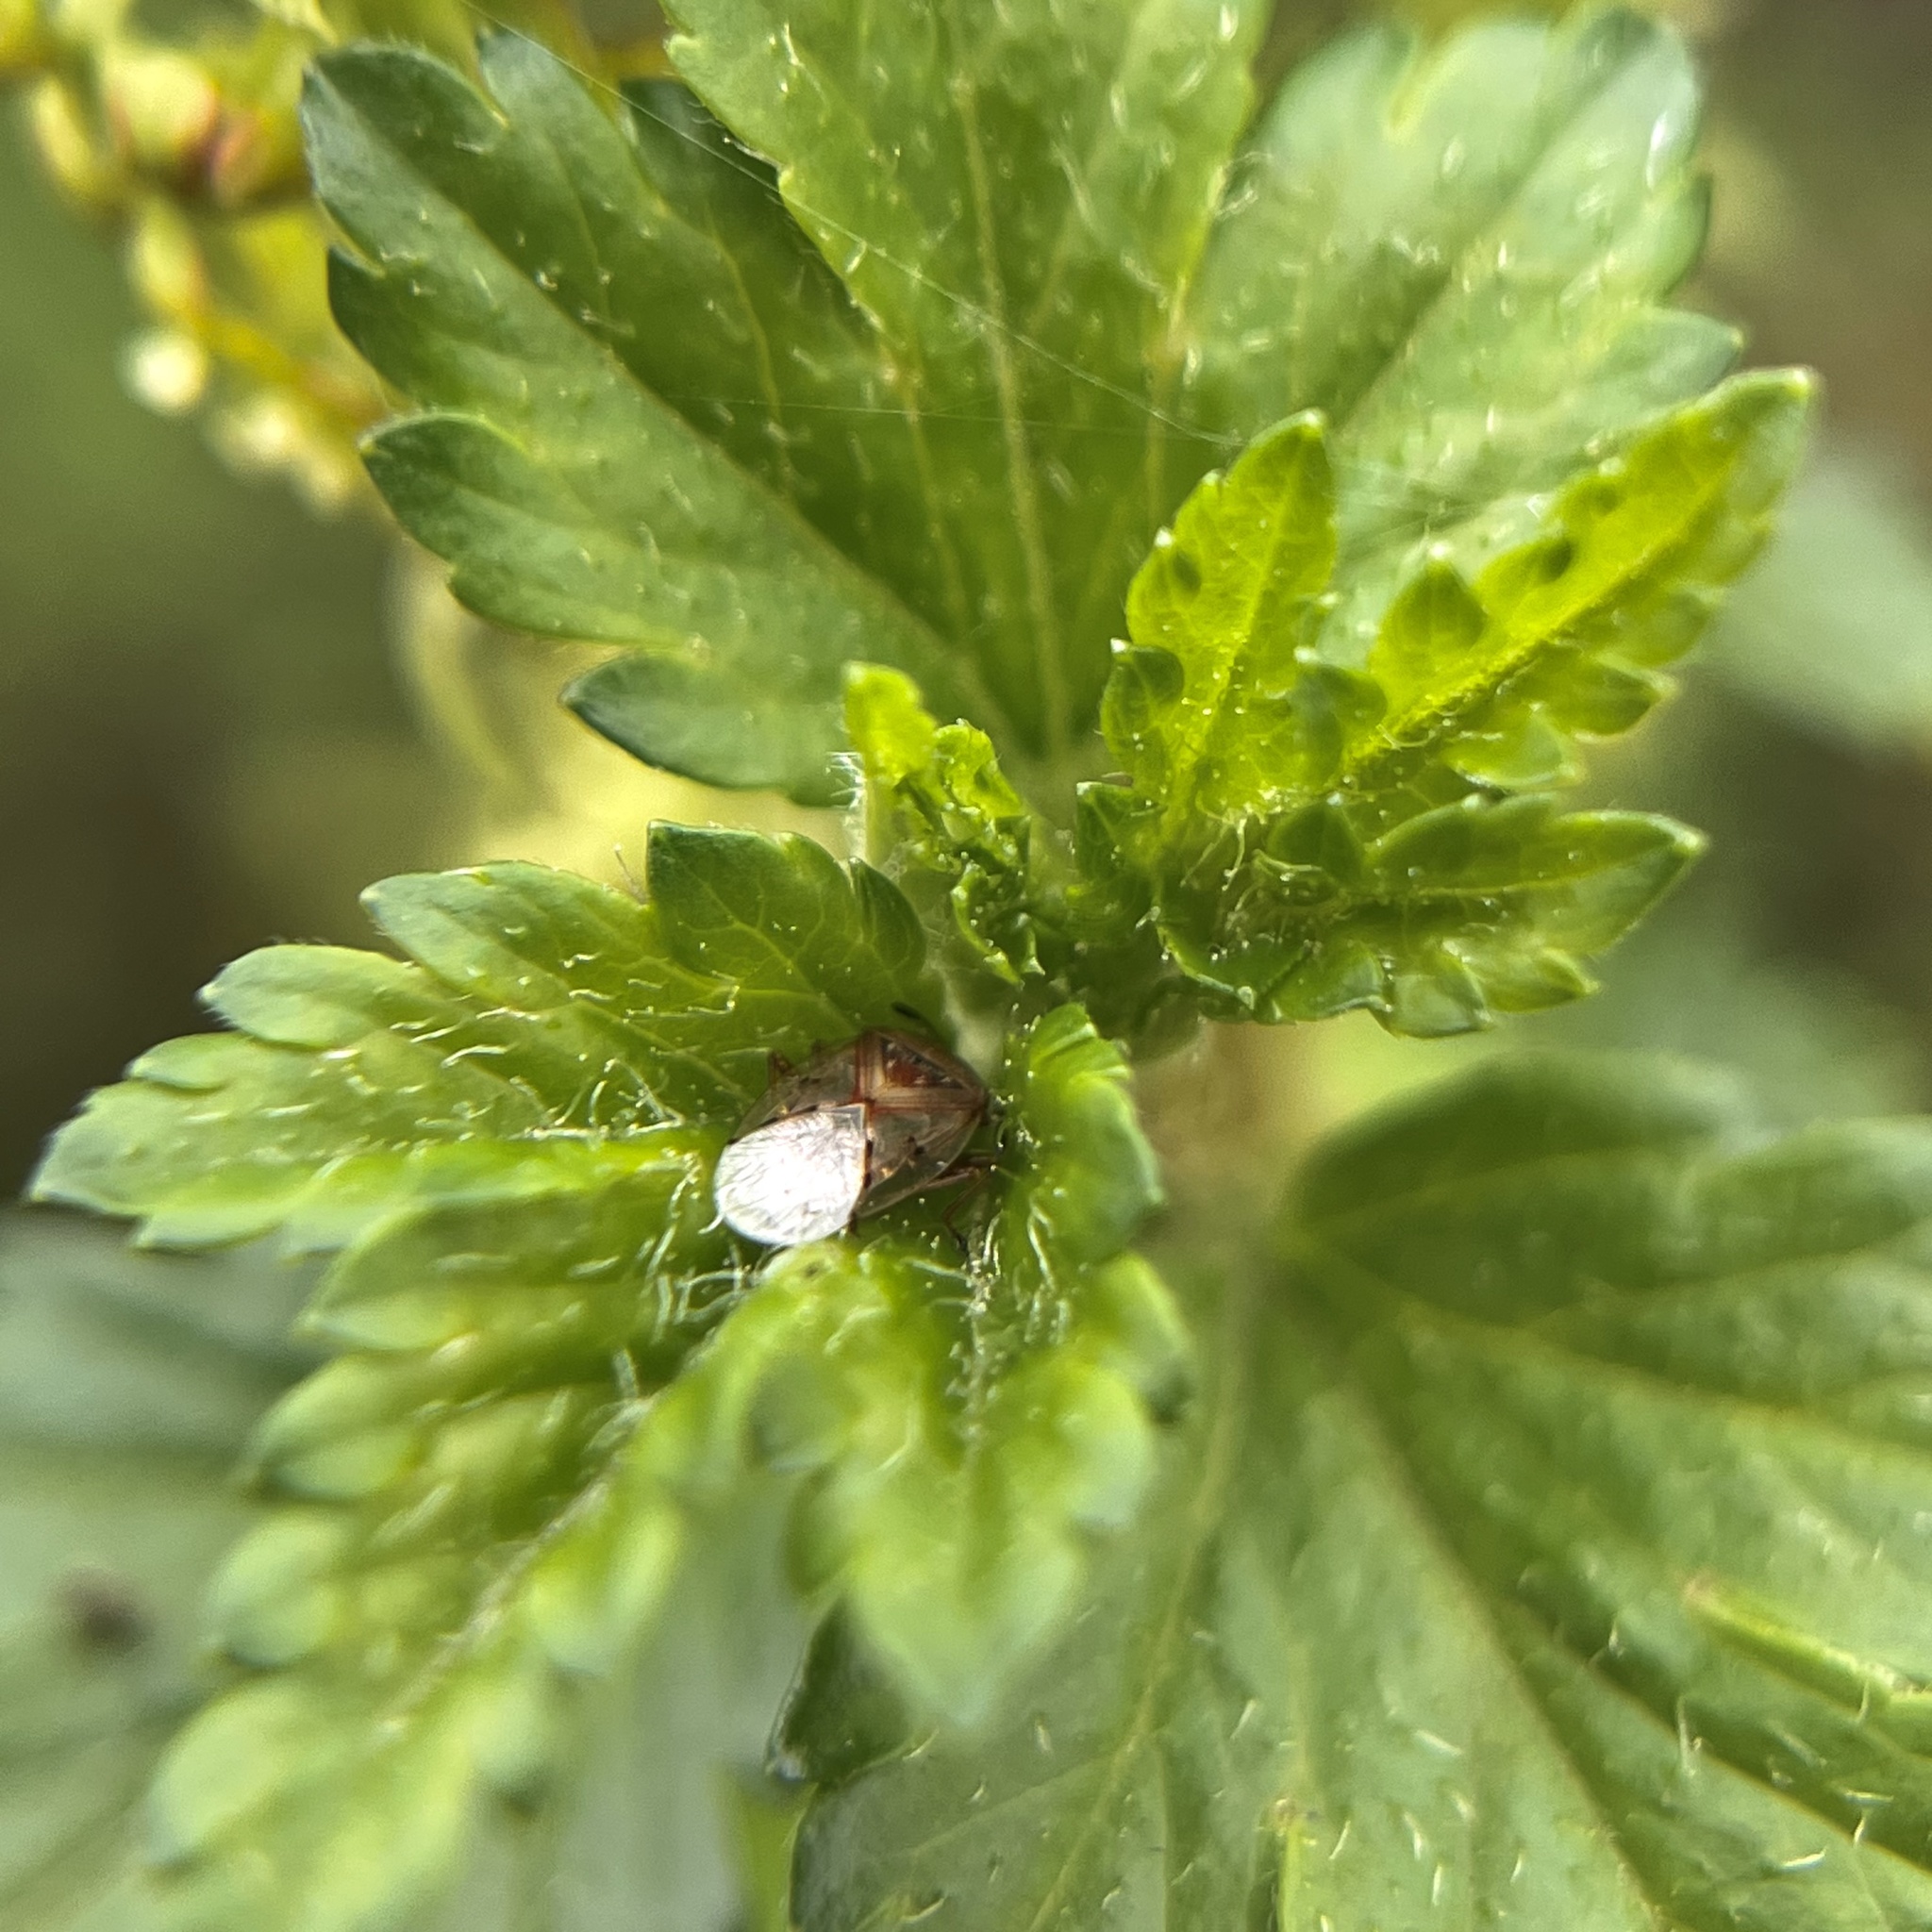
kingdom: Animalia
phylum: Arthropoda
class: Insecta
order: Hemiptera
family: Lygaeidae
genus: Kleidocerys
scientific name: Kleidocerys resedae
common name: Birch catkin bug
